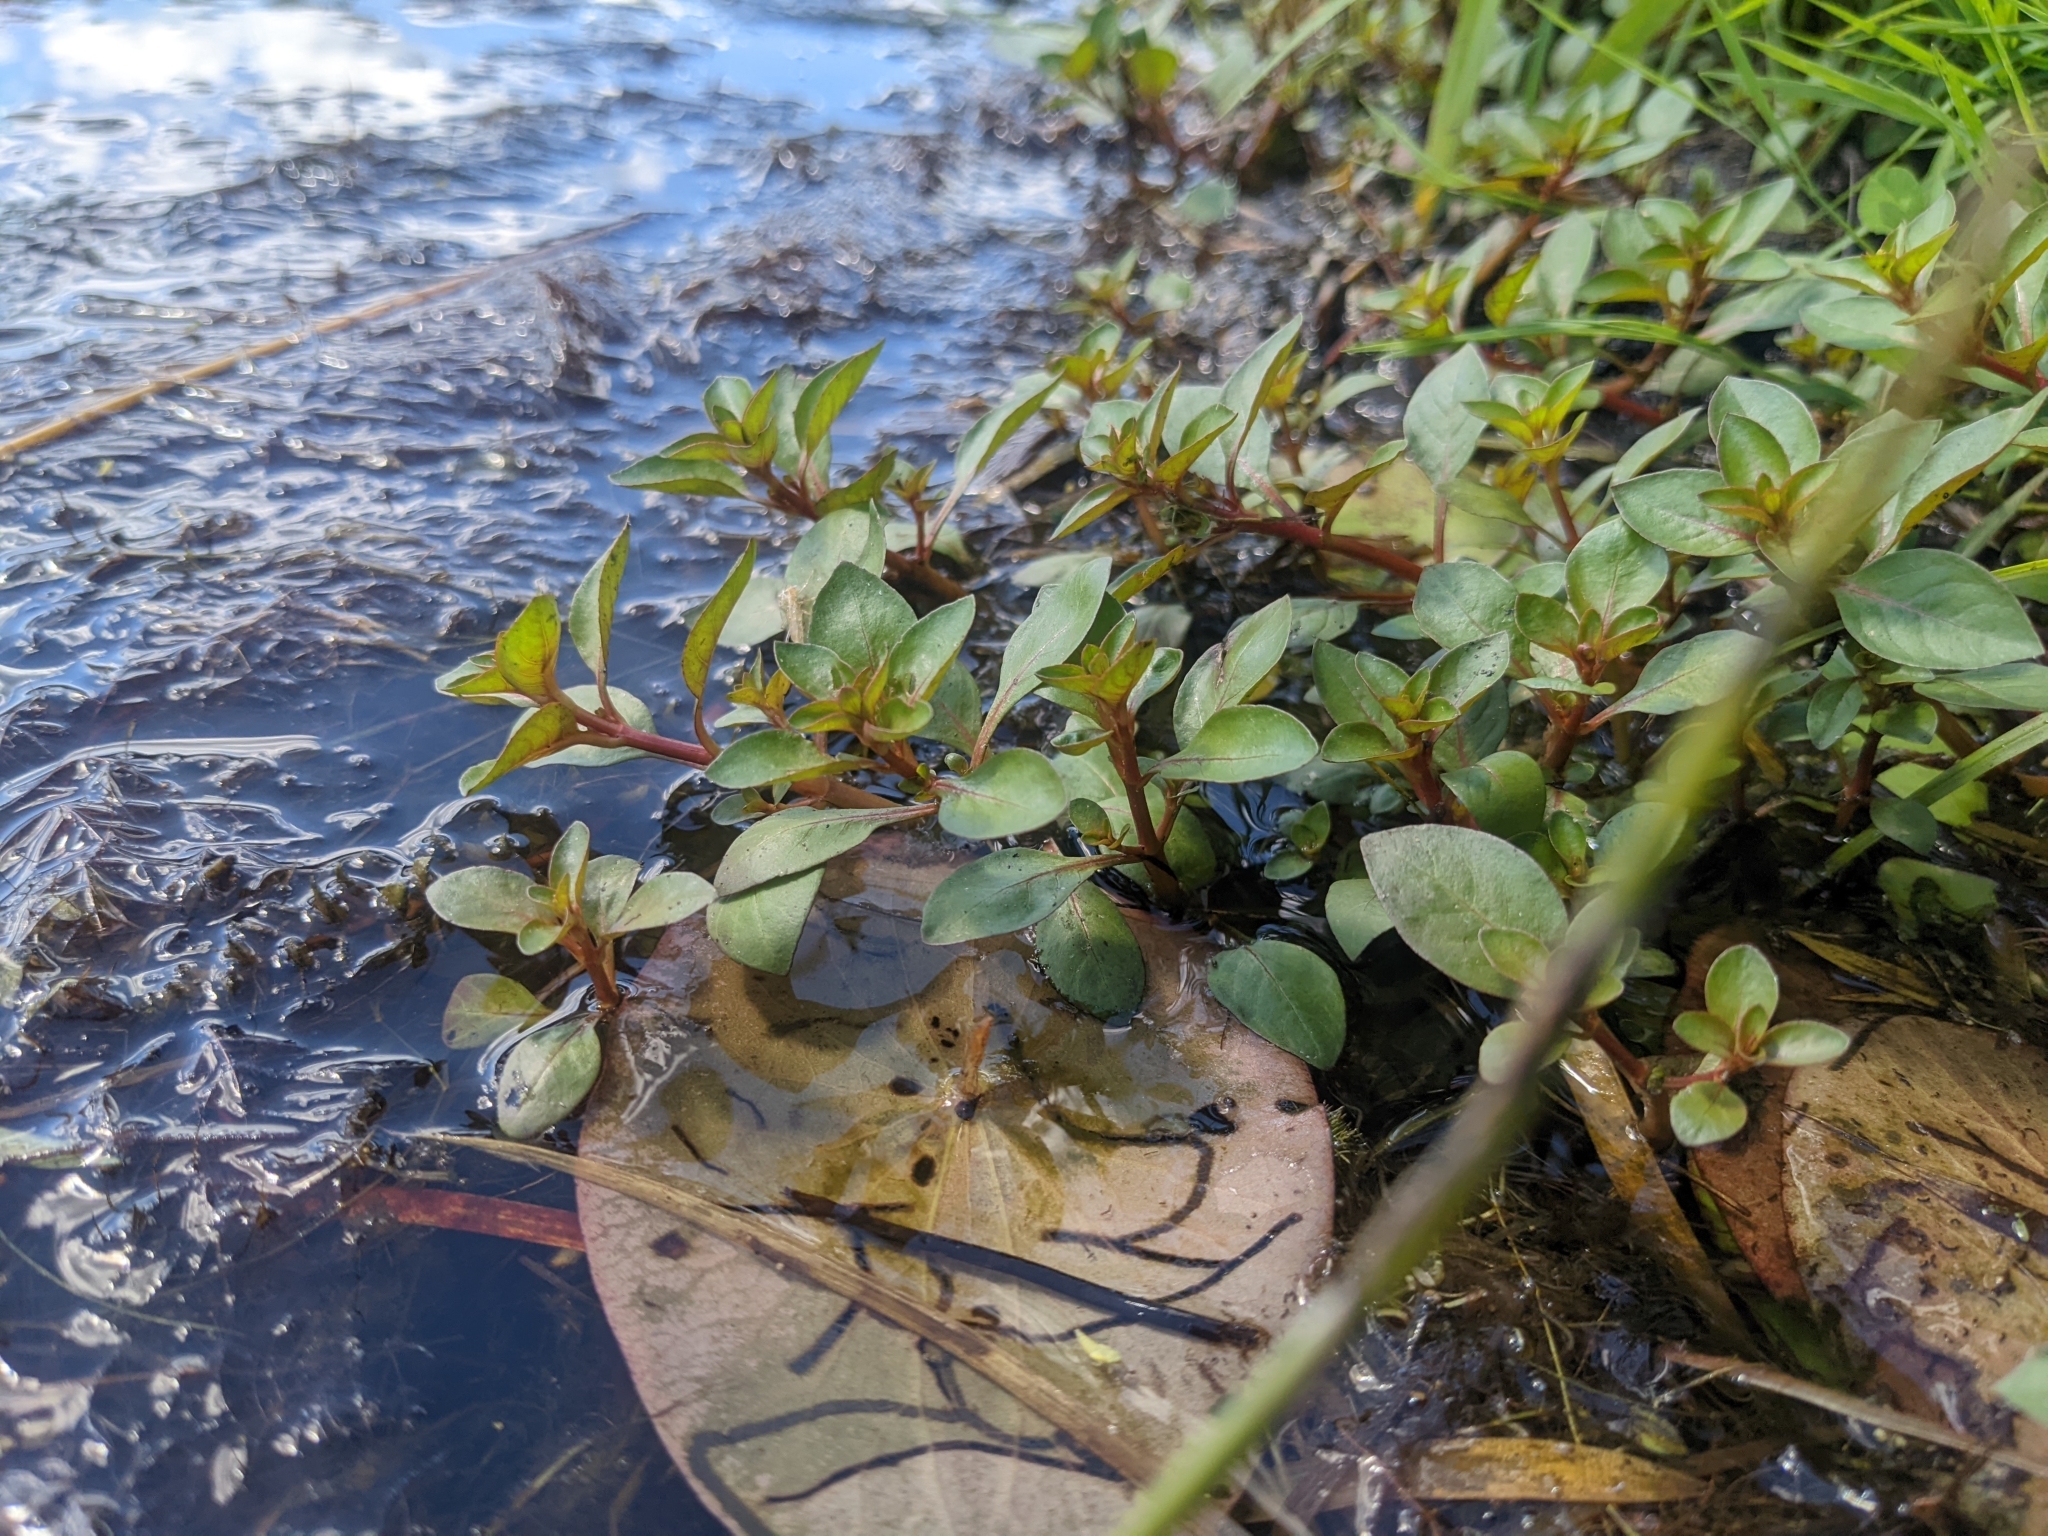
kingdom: Plantae
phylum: Tracheophyta
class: Magnoliopsida
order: Myrtales
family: Onagraceae
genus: Ludwigia
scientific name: Ludwigia palustris
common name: Hampshire-purslane
